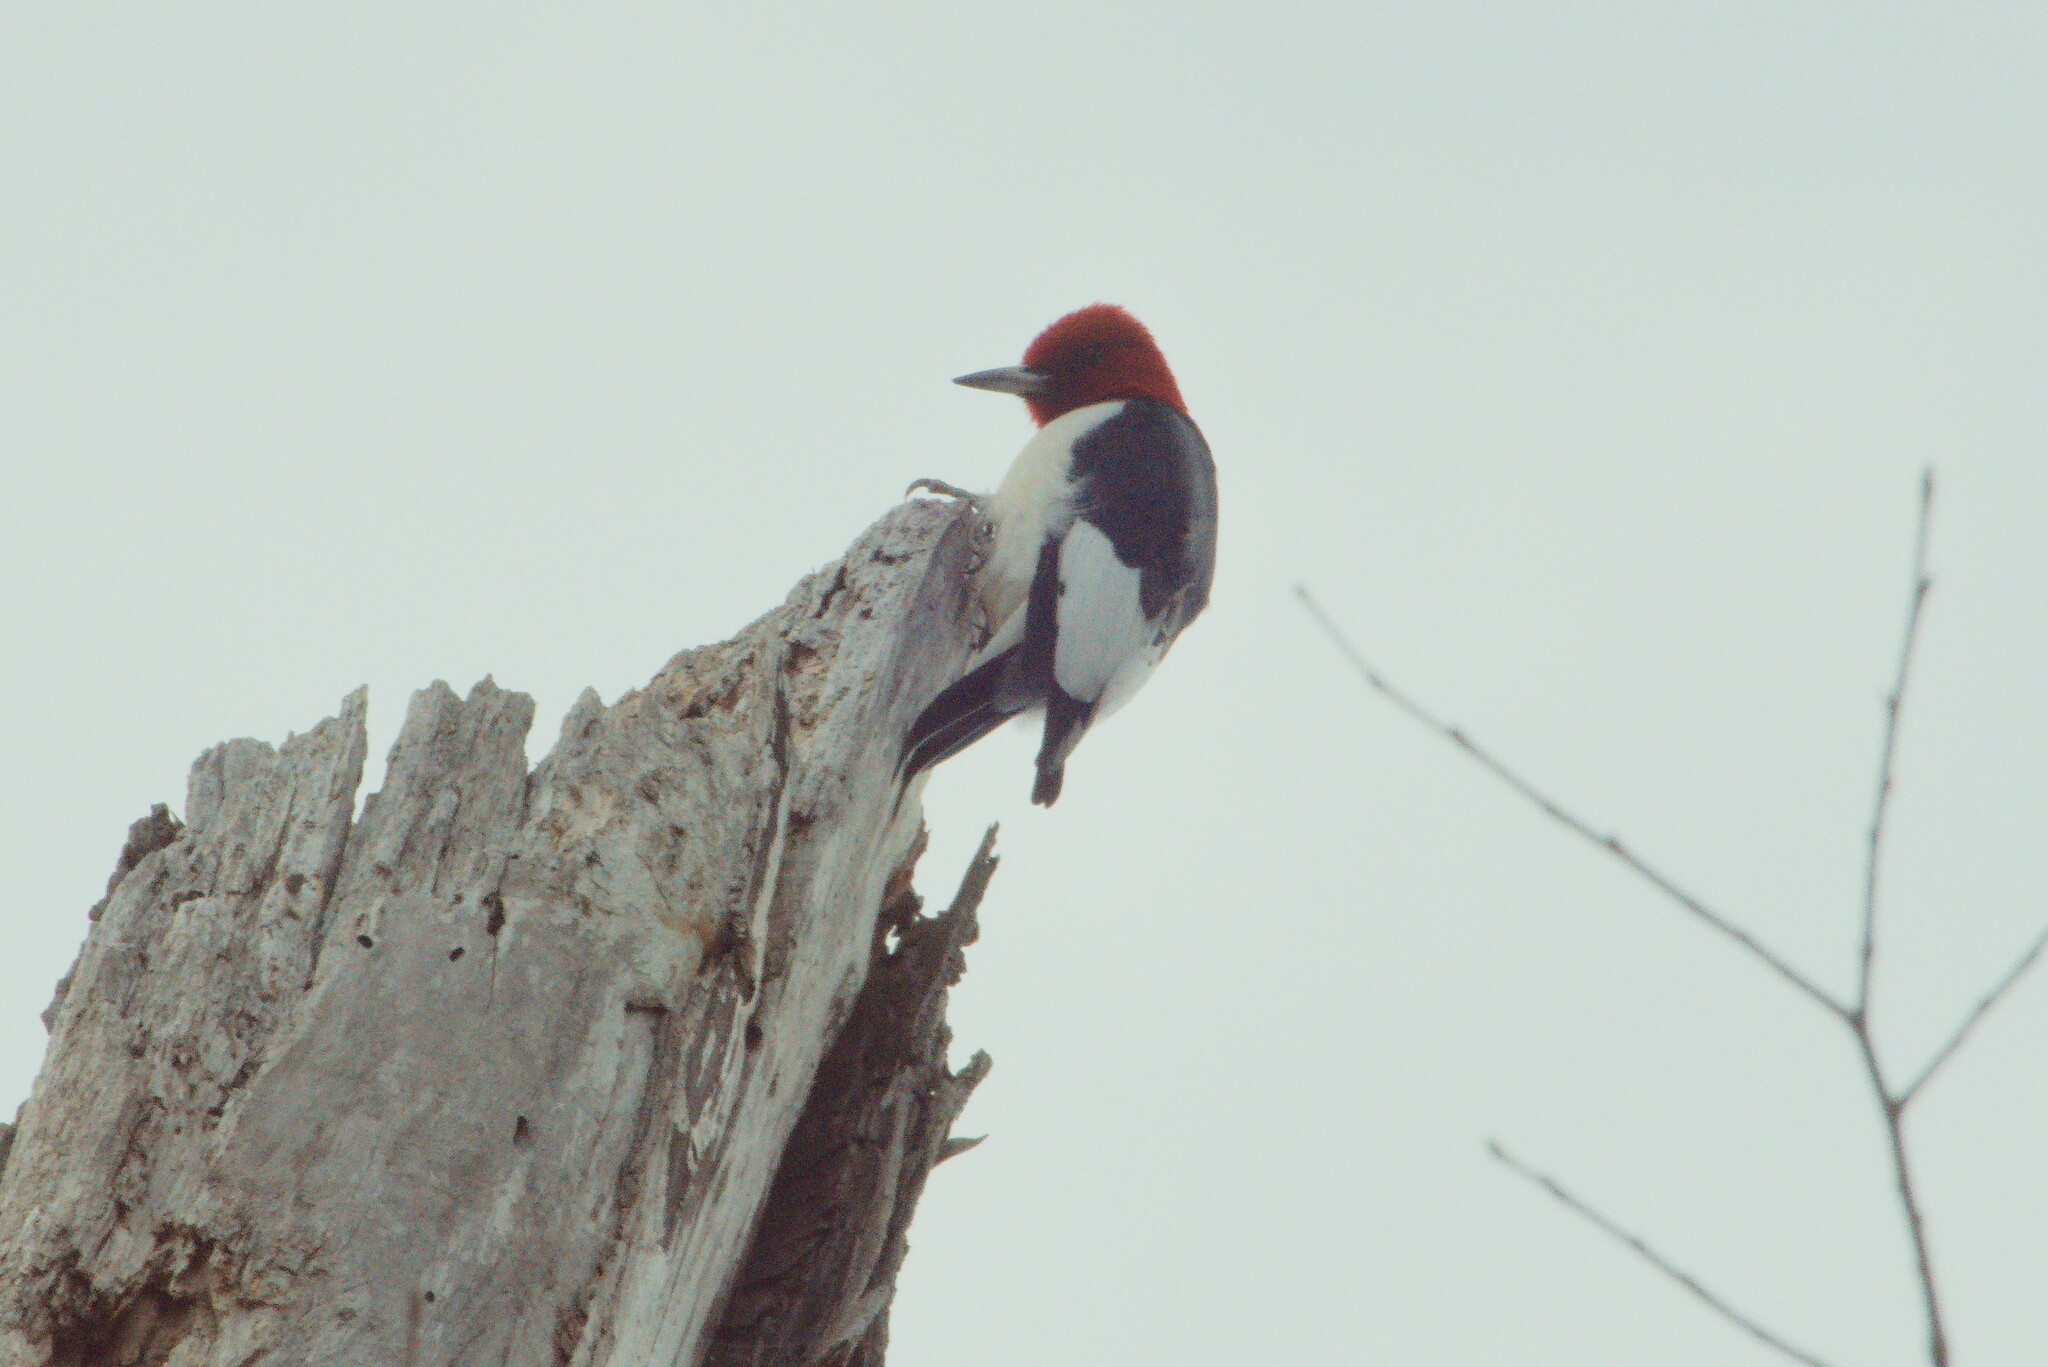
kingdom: Animalia
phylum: Chordata
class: Aves
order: Piciformes
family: Picidae
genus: Melanerpes
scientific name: Melanerpes erythrocephalus
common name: Red-headed woodpecker
